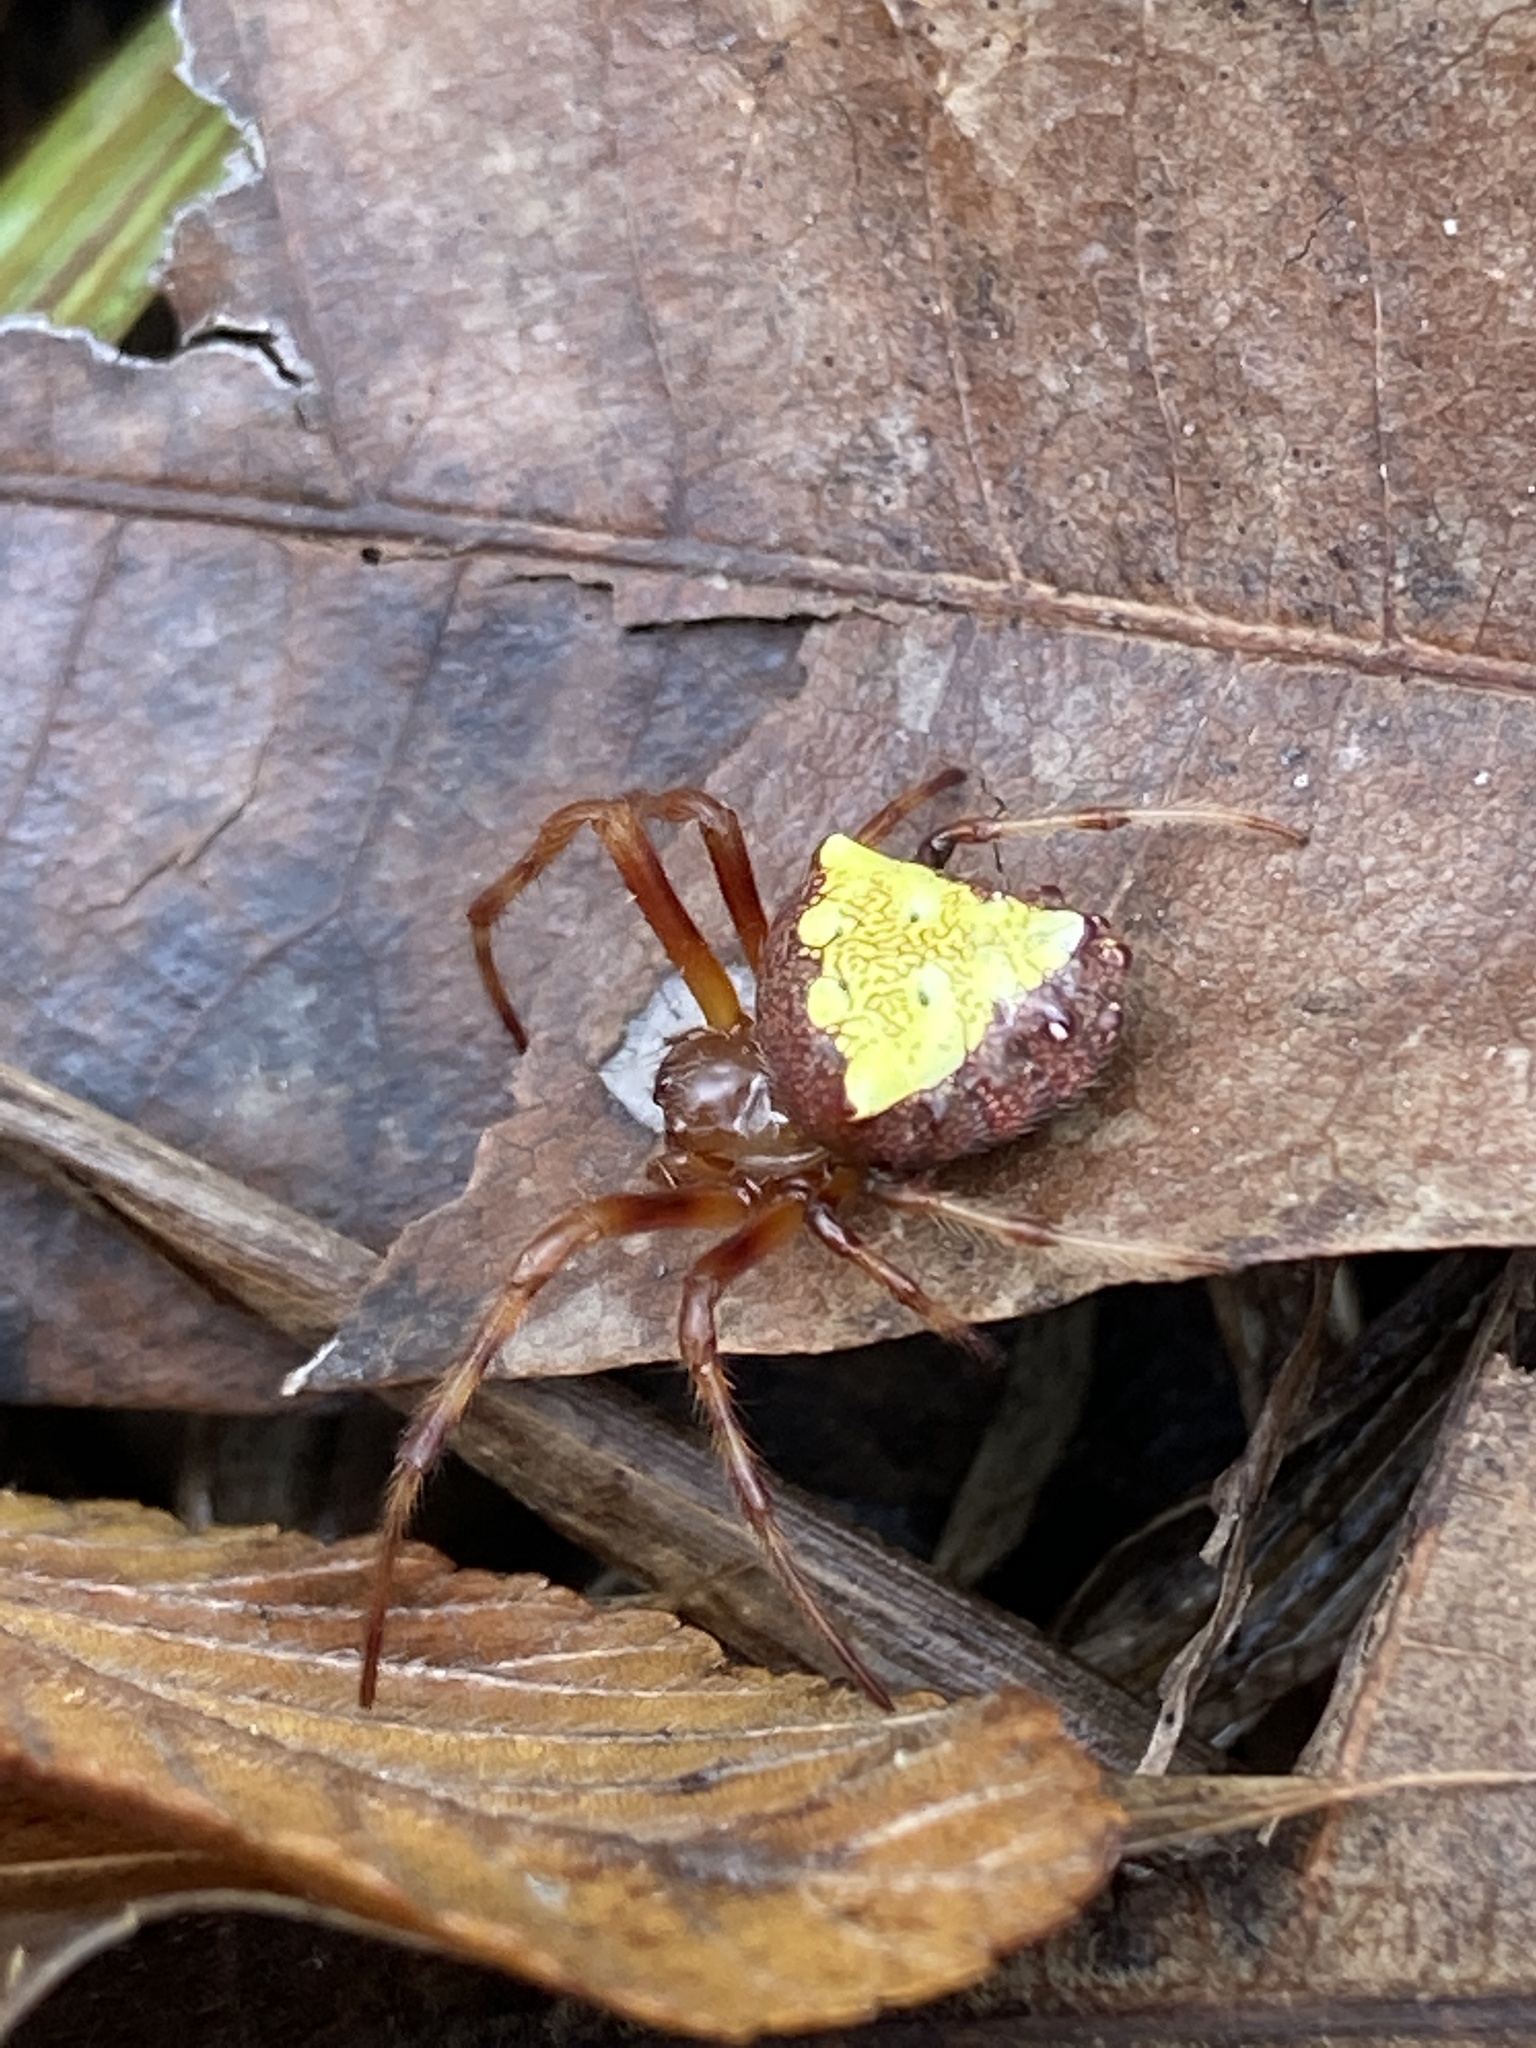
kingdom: Animalia
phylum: Arthropoda
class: Arachnida
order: Araneae
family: Araneidae
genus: Verrucosa
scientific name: Verrucosa arenata
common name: Orb weavers
